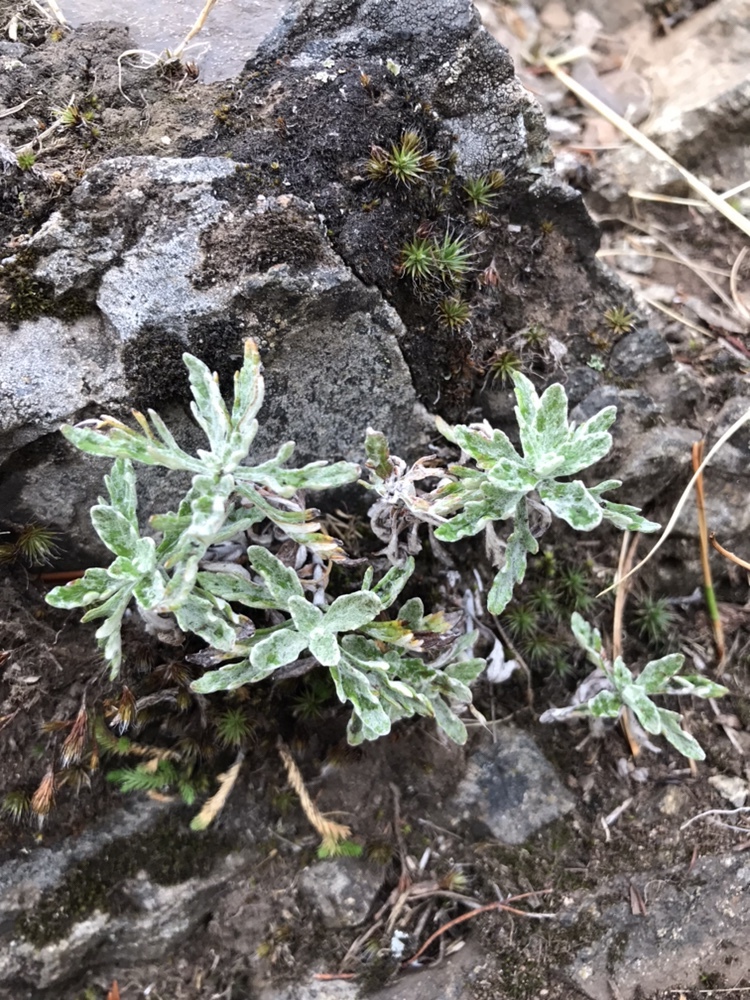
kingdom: Plantae
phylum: Tracheophyta
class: Magnoliopsida
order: Asterales
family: Asteraceae
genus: Eriophyllum
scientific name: Eriophyllum lanatum
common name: Common woolly-sunflower
